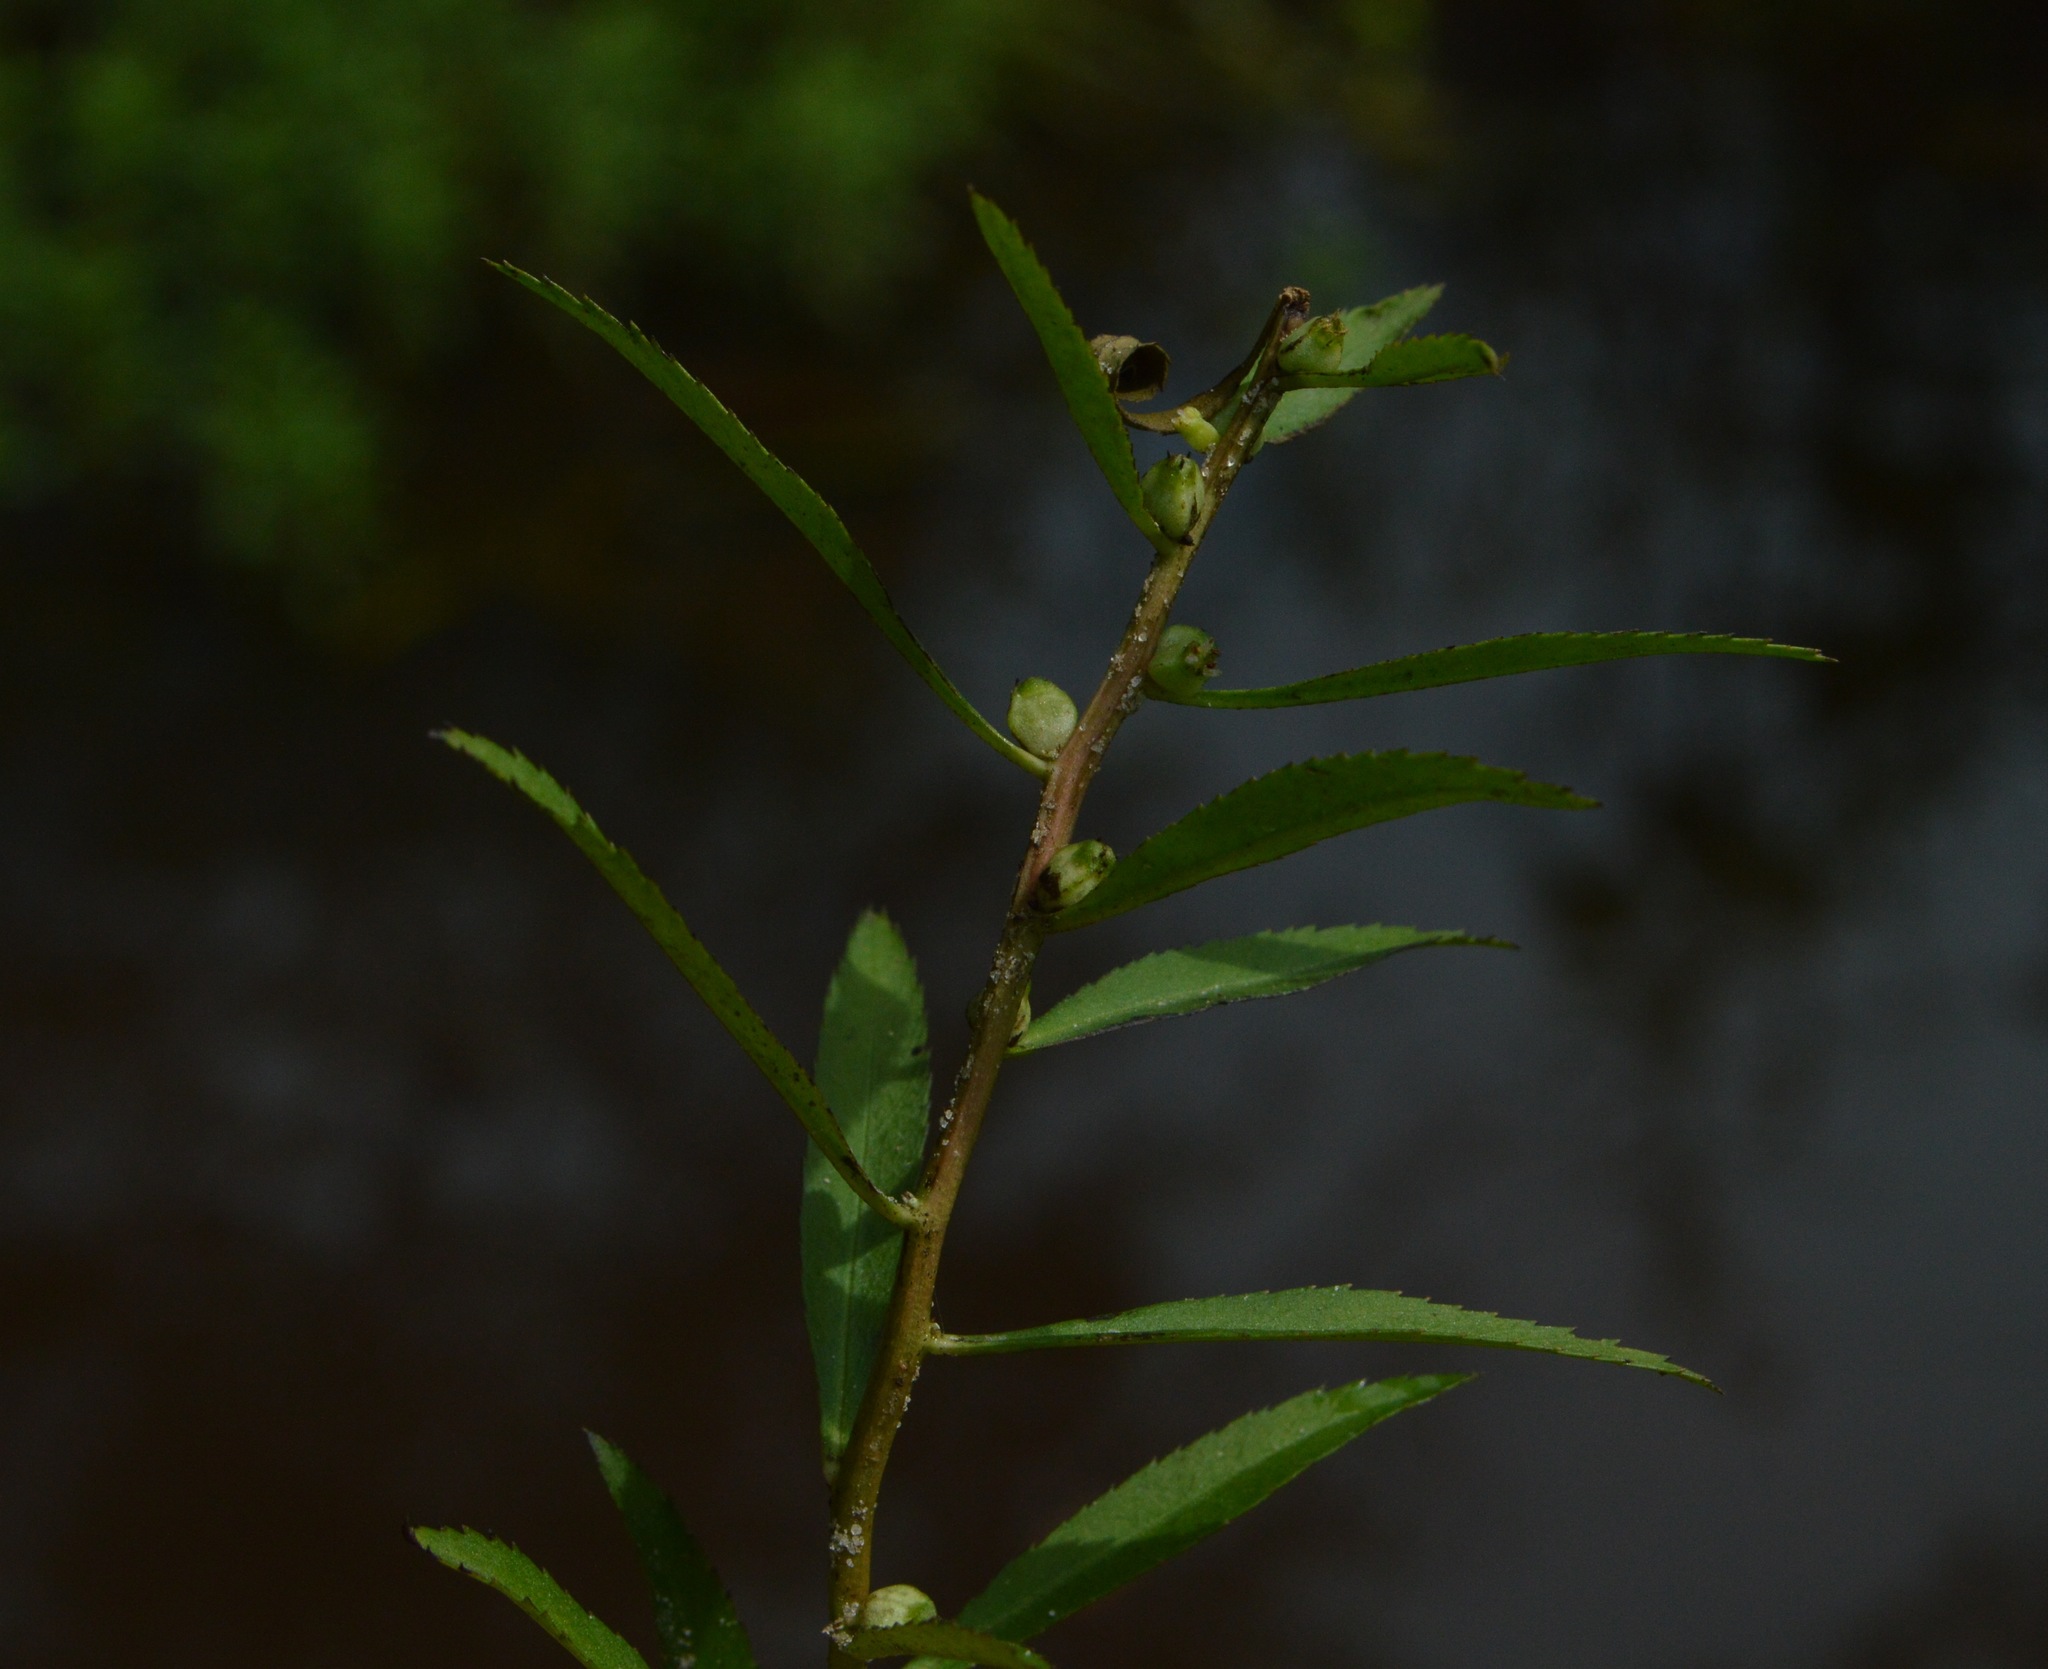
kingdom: Plantae
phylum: Tracheophyta
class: Magnoliopsida
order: Saxifragales
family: Haloragaceae
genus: Proserpinaca
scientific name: Proserpinaca palustris
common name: Marsh mermaidweed
